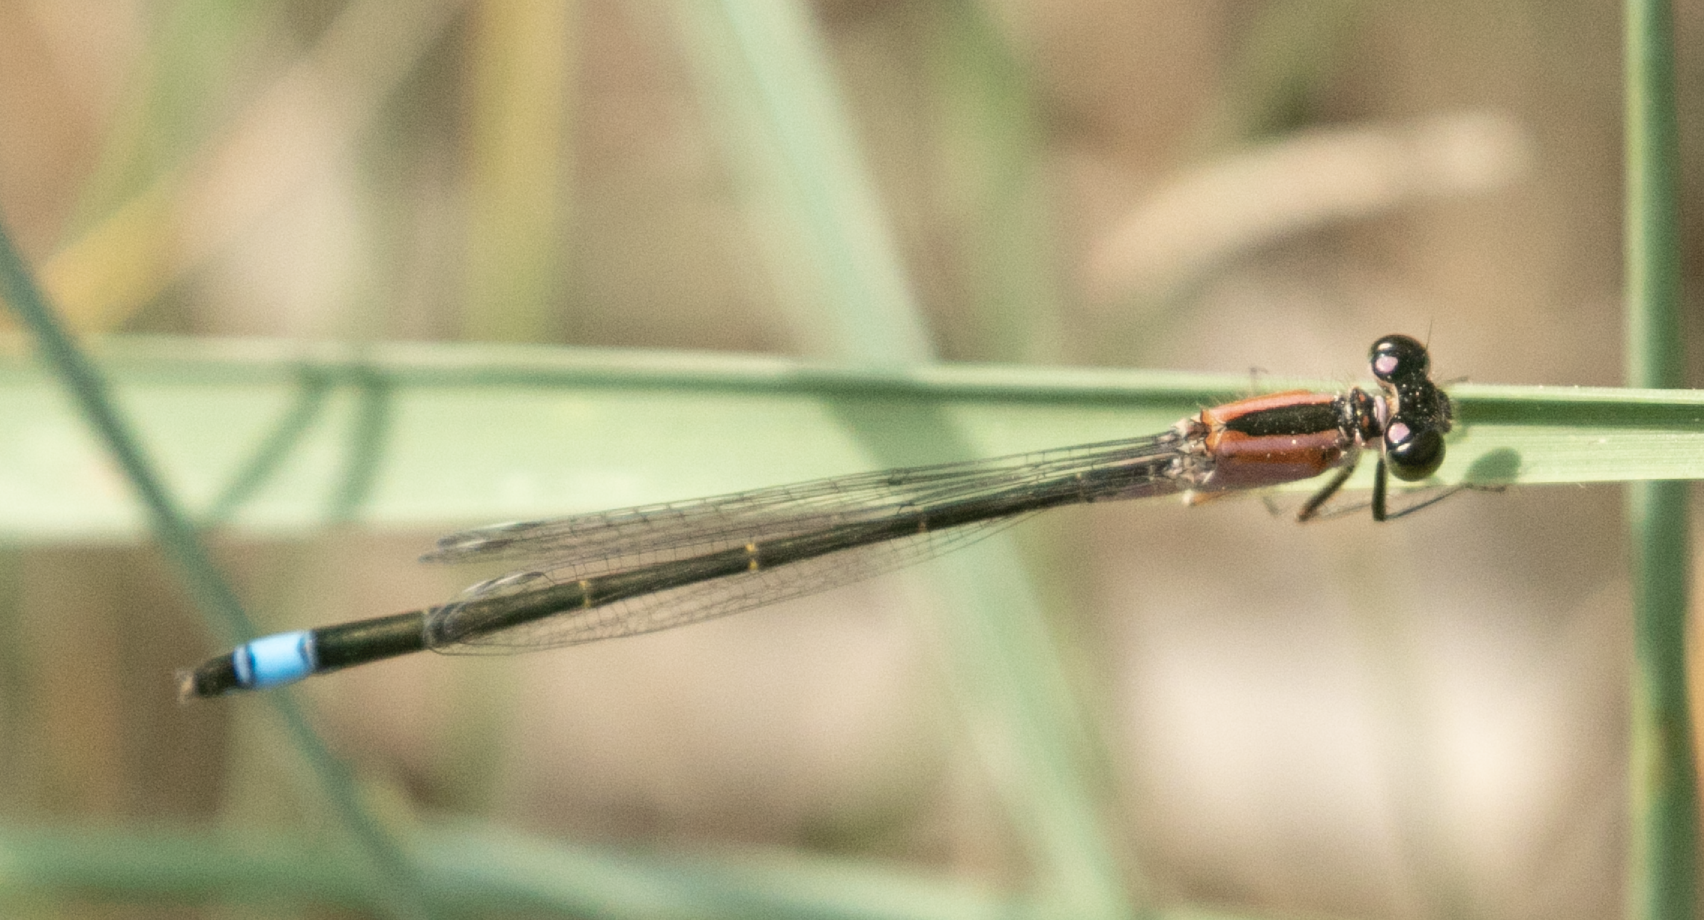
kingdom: Animalia
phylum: Arthropoda
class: Insecta
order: Odonata
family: Coenagrionidae
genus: Ischnura
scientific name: Ischnura elegans
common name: Blue-tailed damselfly
